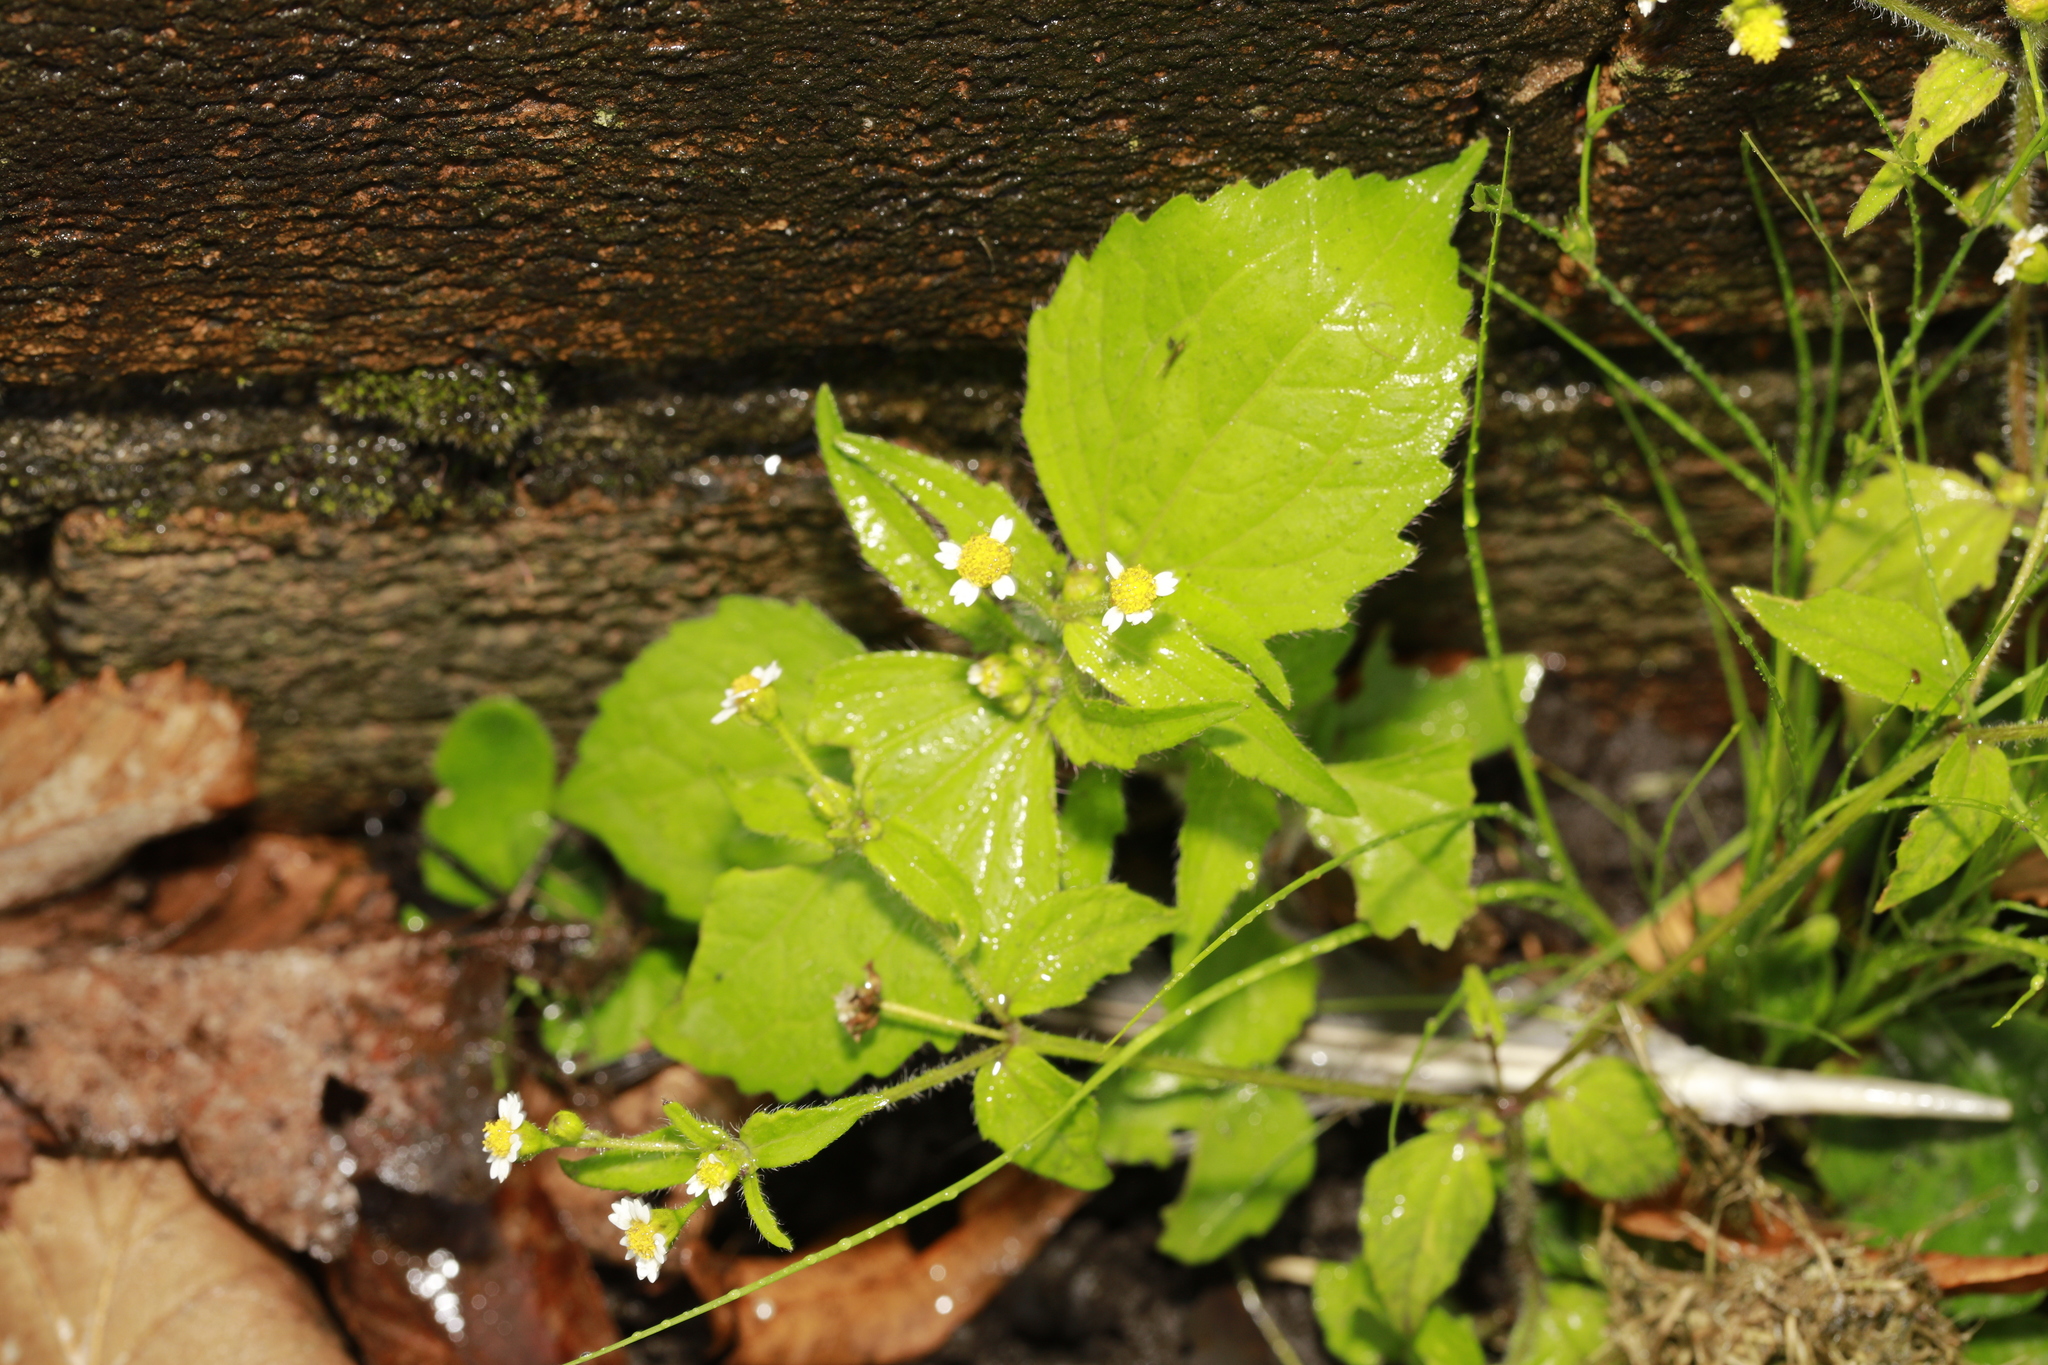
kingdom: Plantae
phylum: Tracheophyta
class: Magnoliopsida
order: Asterales
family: Asteraceae
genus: Galinsoga
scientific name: Galinsoga quadriradiata
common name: Shaggy soldier
